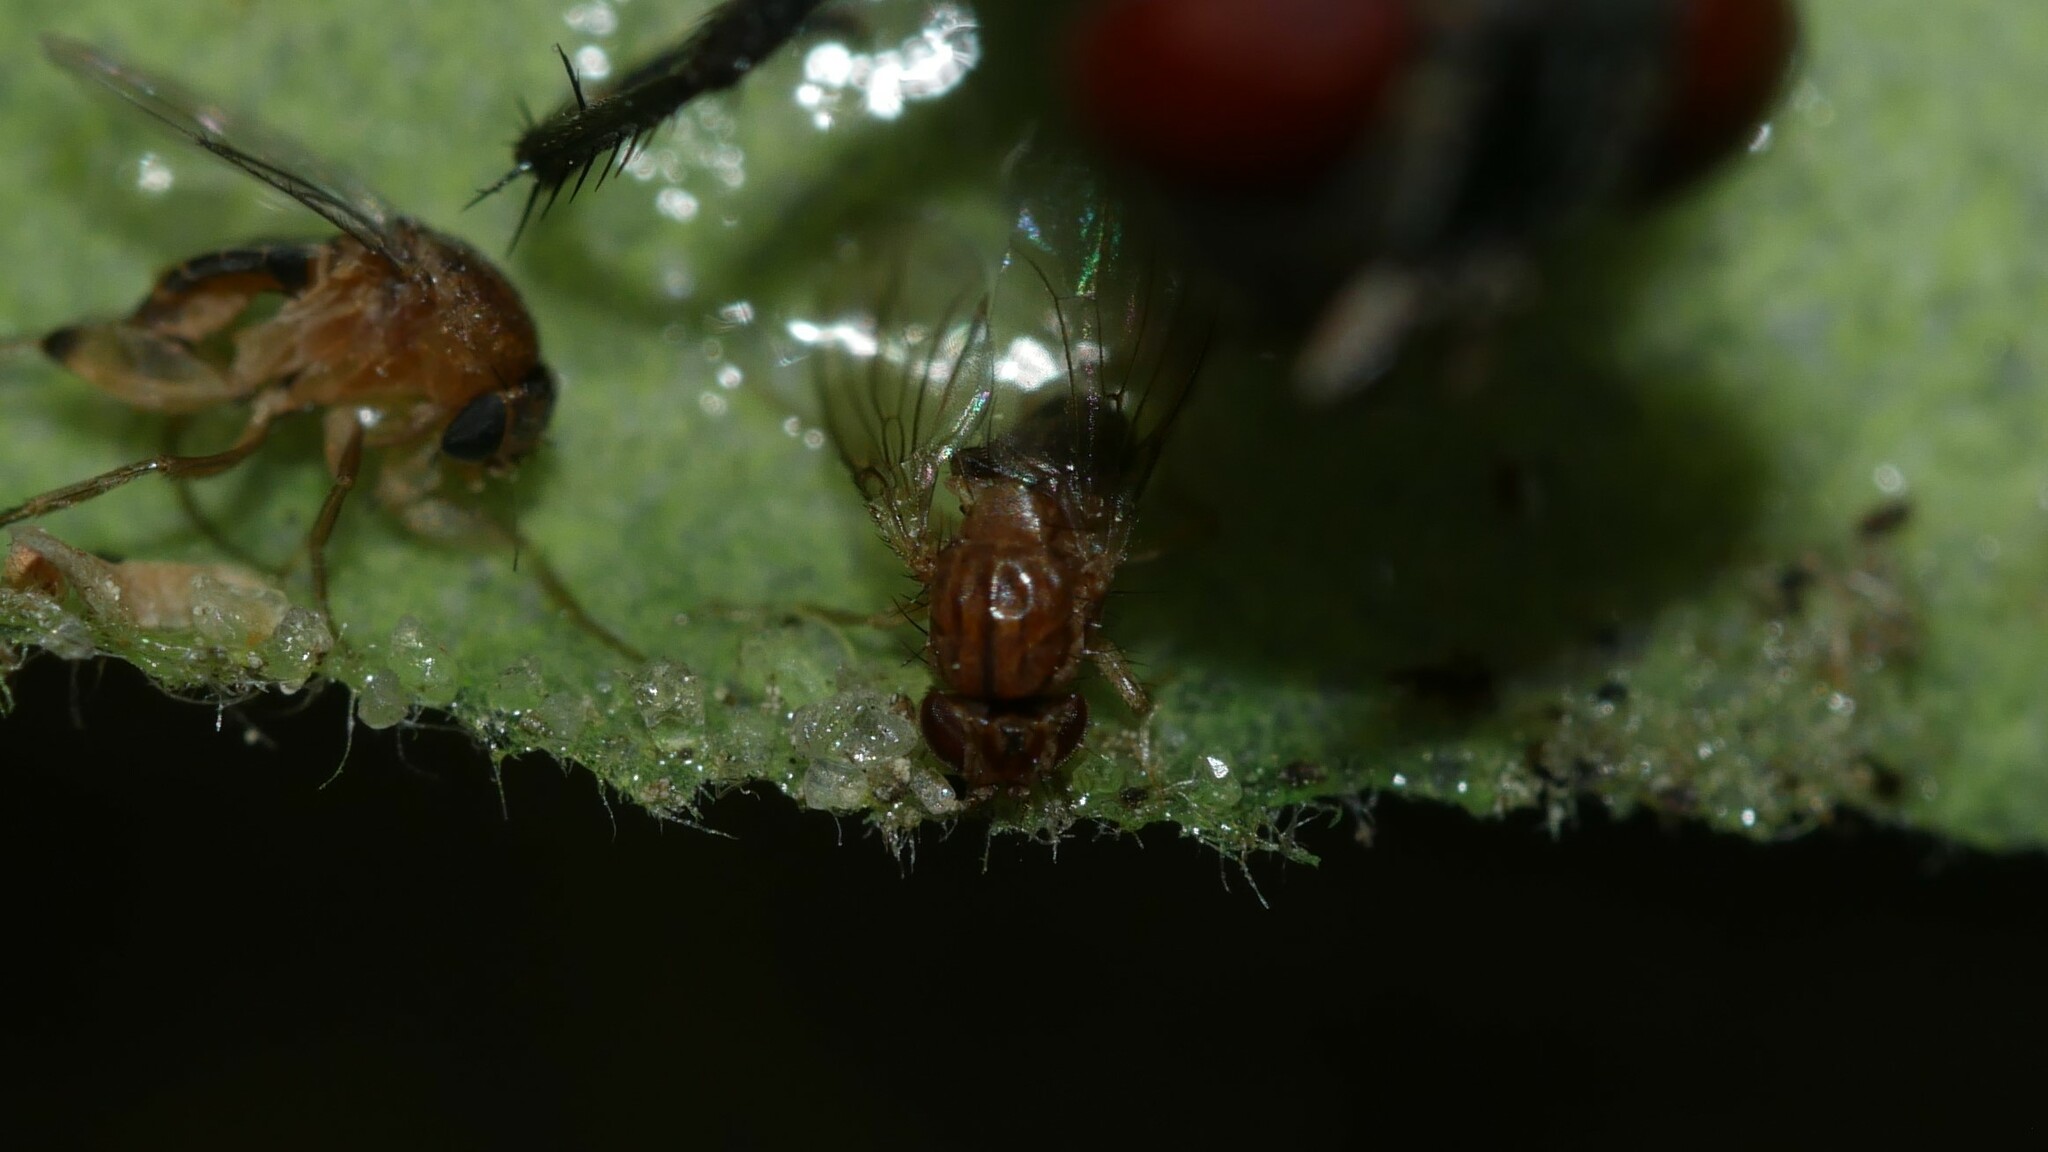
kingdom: Animalia
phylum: Arthropoda
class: Insecta
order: Diptera
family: Drosophilidae
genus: Drosophila
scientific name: Drosophila busckii
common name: Pomace fly
